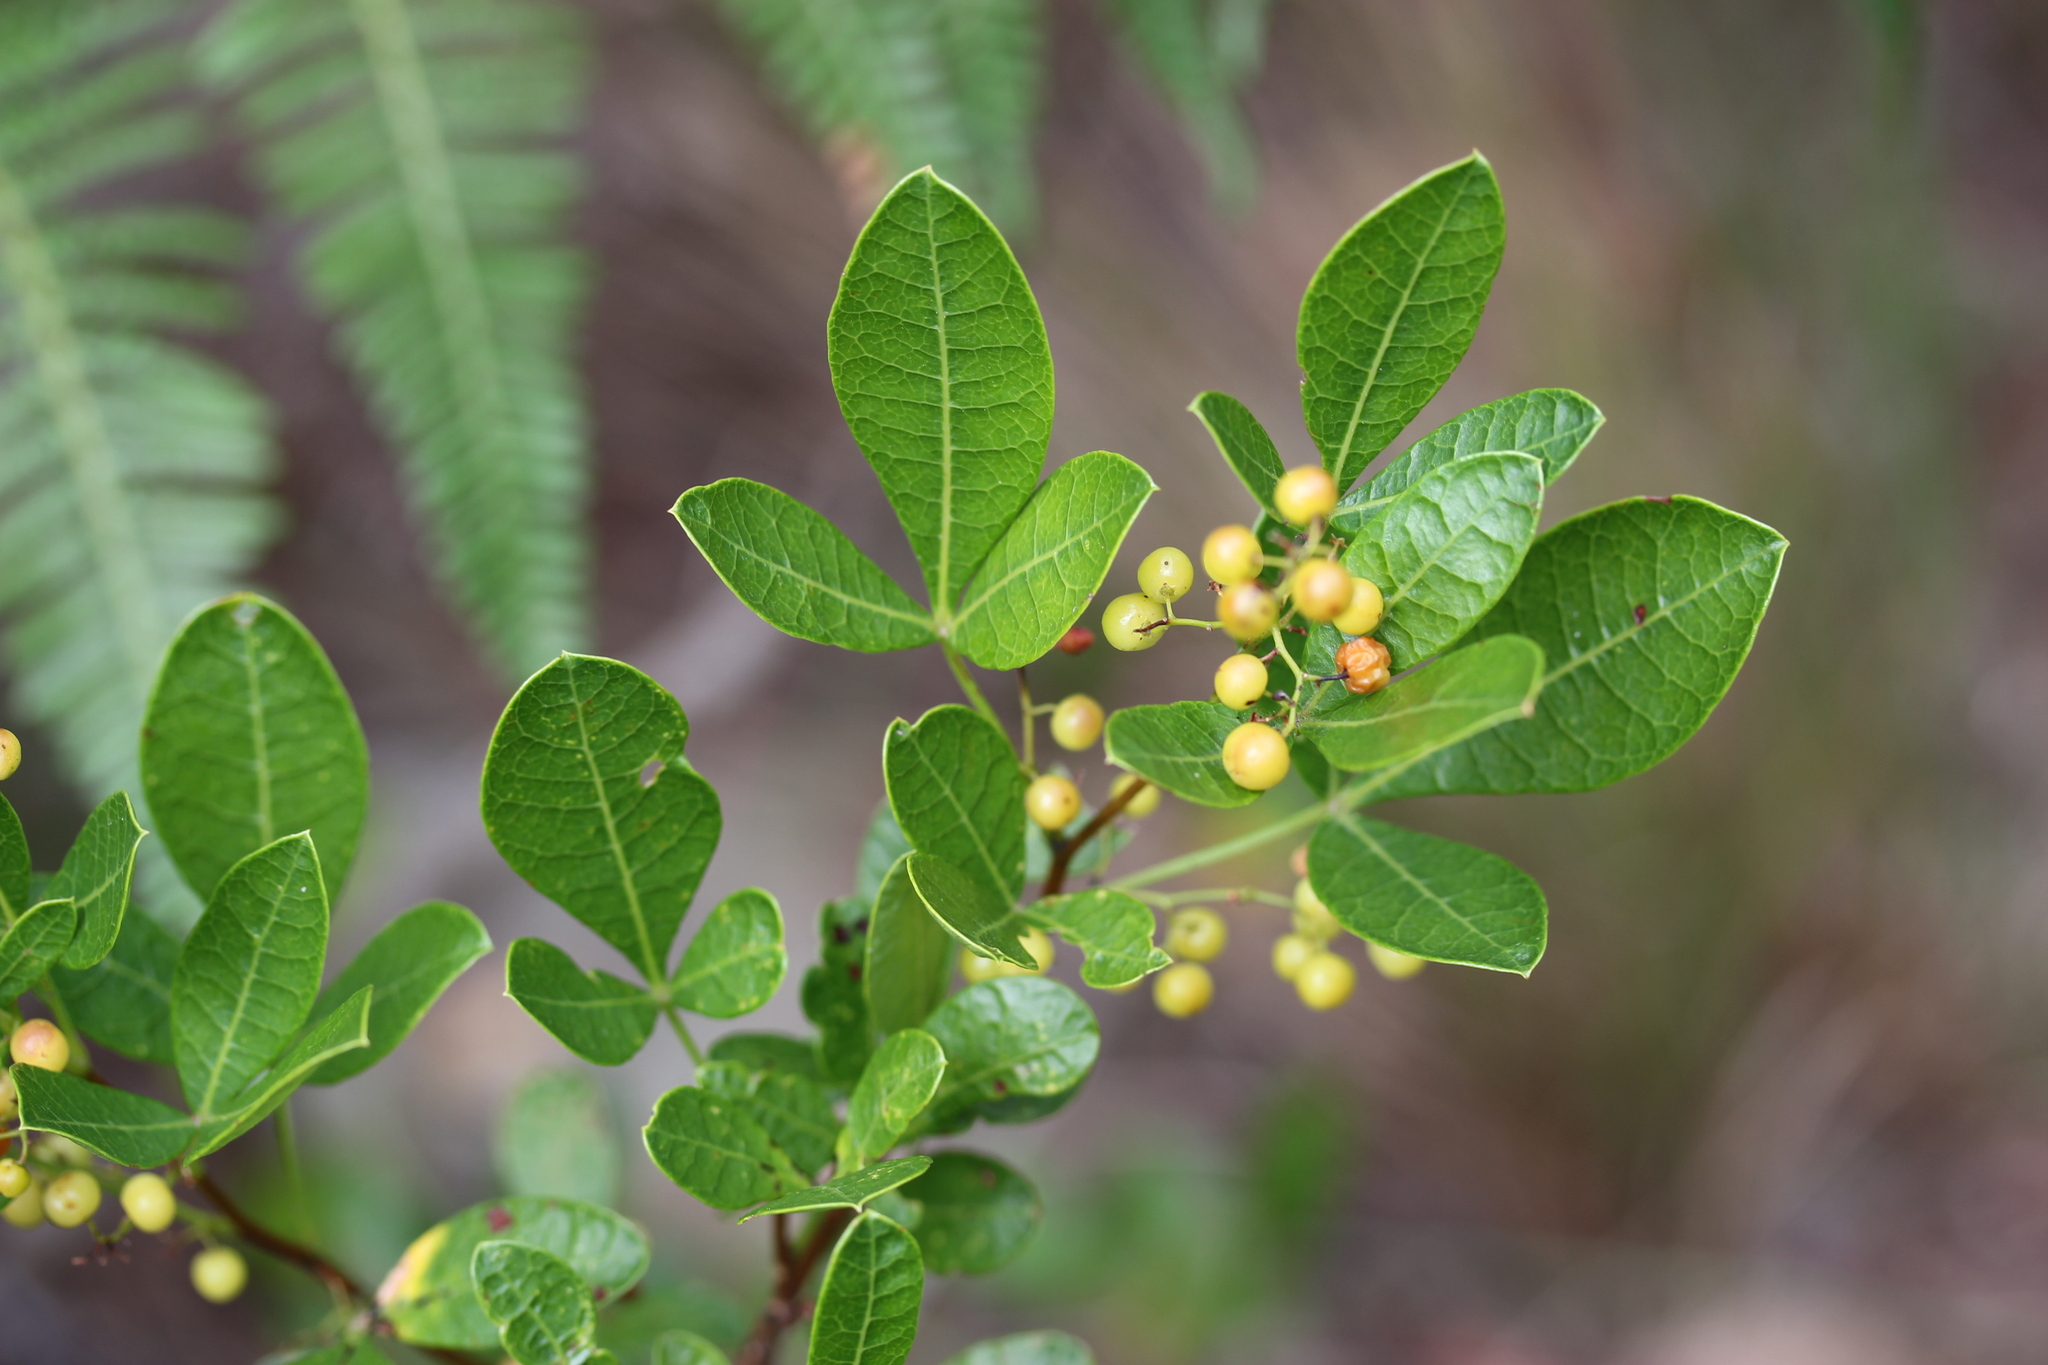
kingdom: Plantae
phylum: Tracheophyta
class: Magnoliopsida
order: Sapindales
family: Anacardiaceae
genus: Searsia
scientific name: Searsia laevigata
